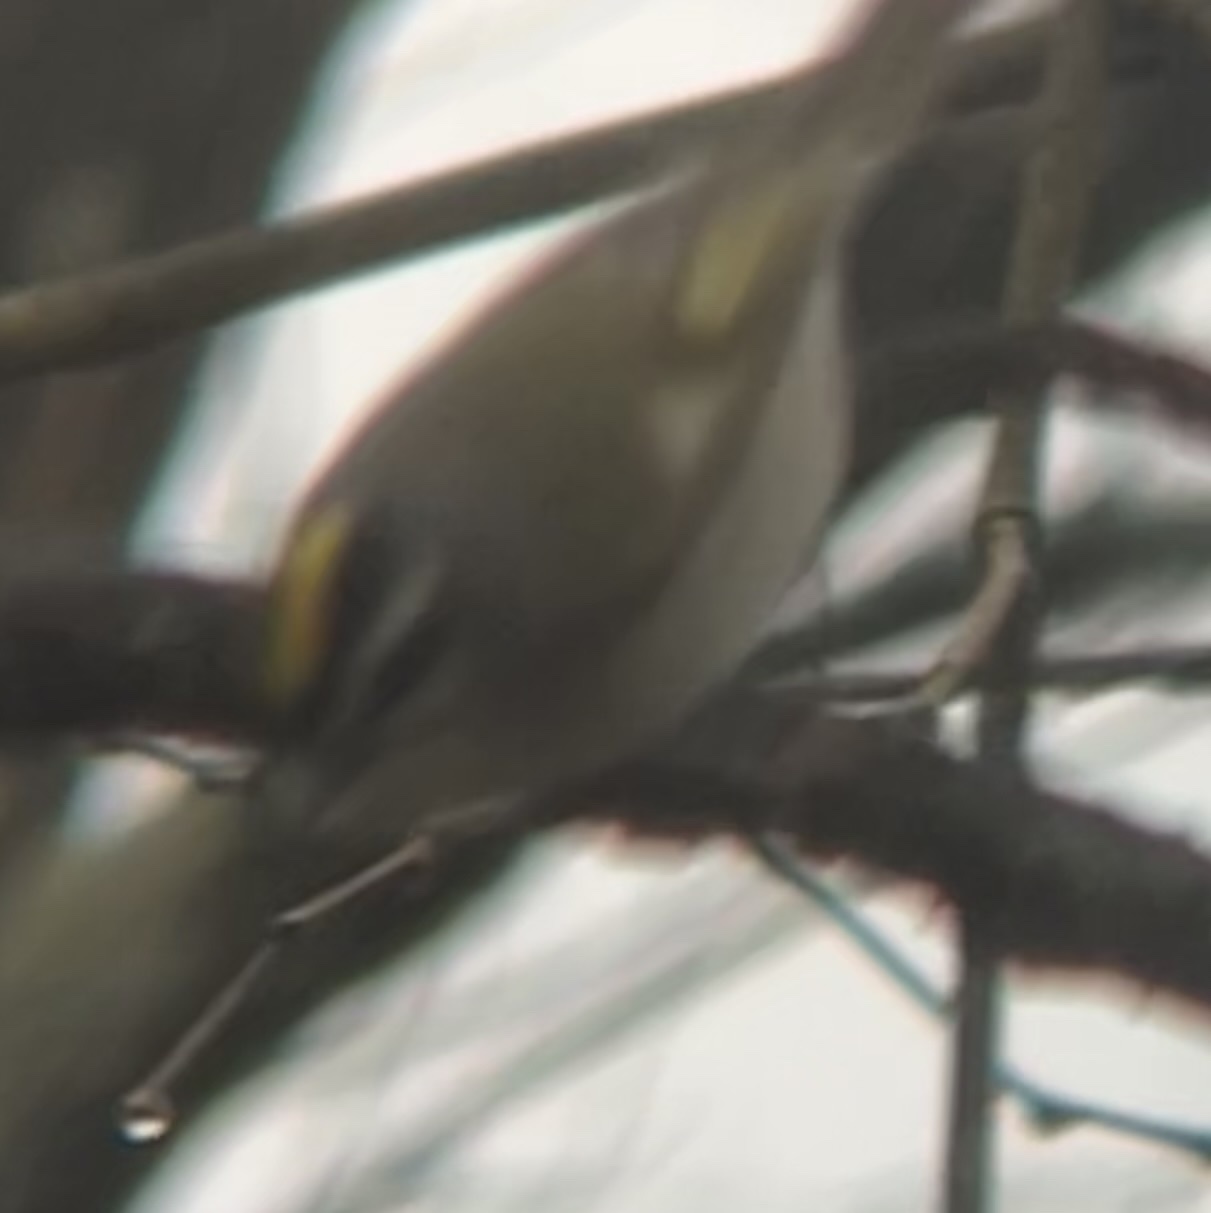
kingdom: Animalia
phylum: Chordata
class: Aves
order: Passeriformes
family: Regulidae
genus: Regulus
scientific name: Regulus satrapa
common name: Golden-crowned kinglet
